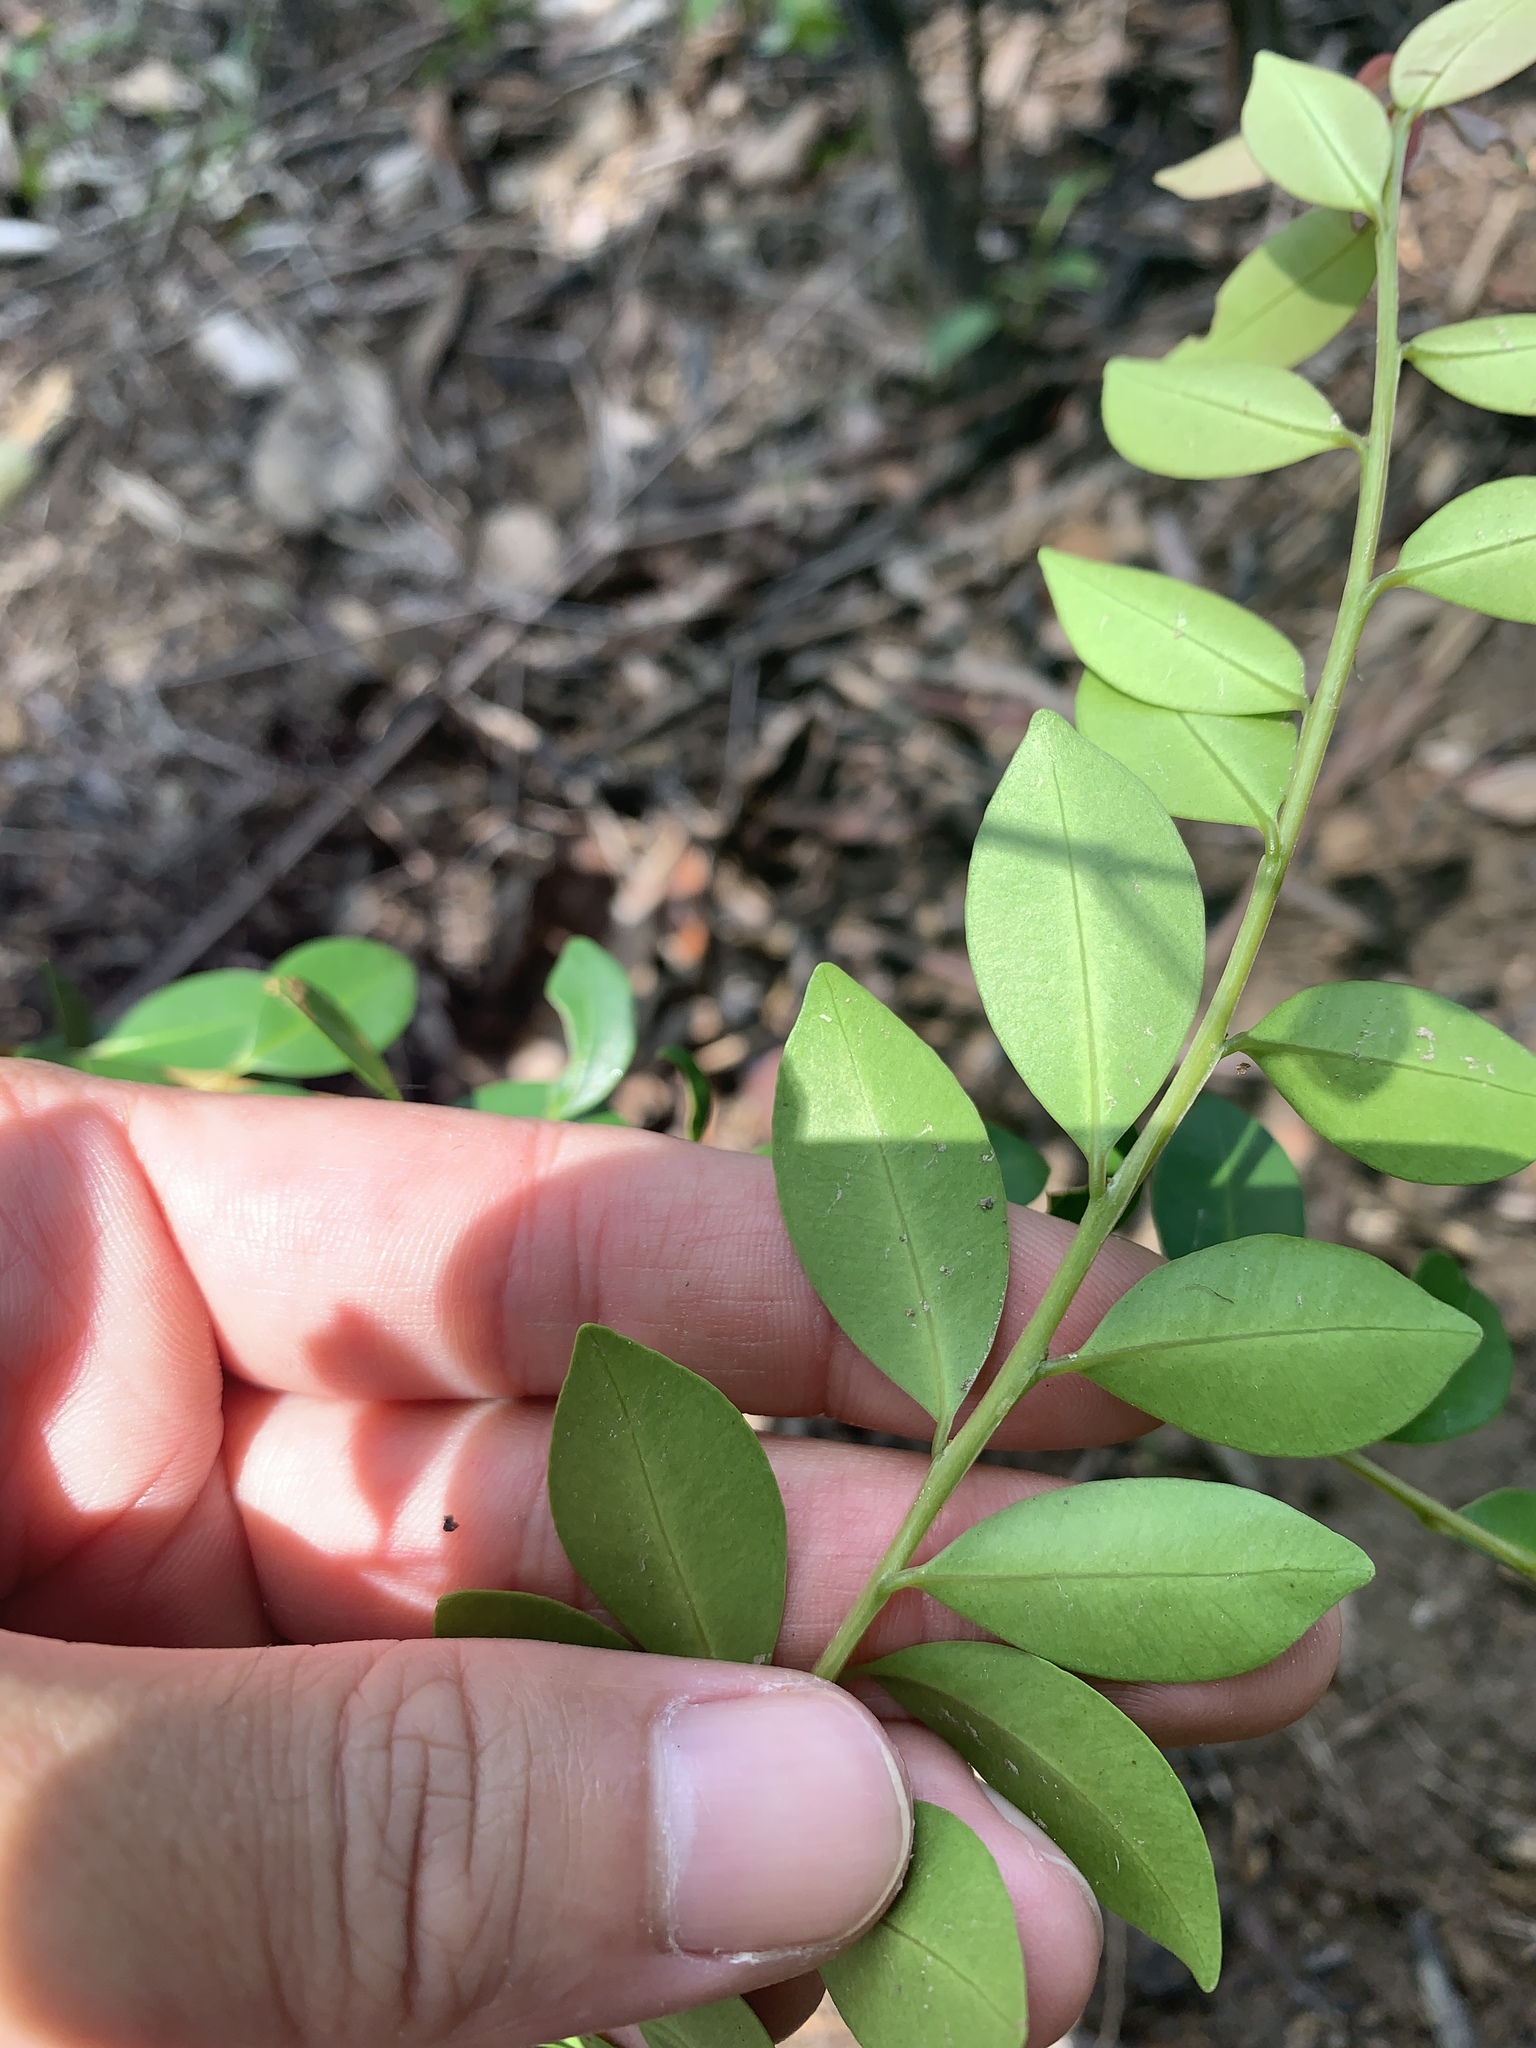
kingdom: Plantae
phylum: Tracheophyta
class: Magnoliopsida
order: Myrtales
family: Myrtaceae
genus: Syzygium
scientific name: Syzygium elliptifolium
